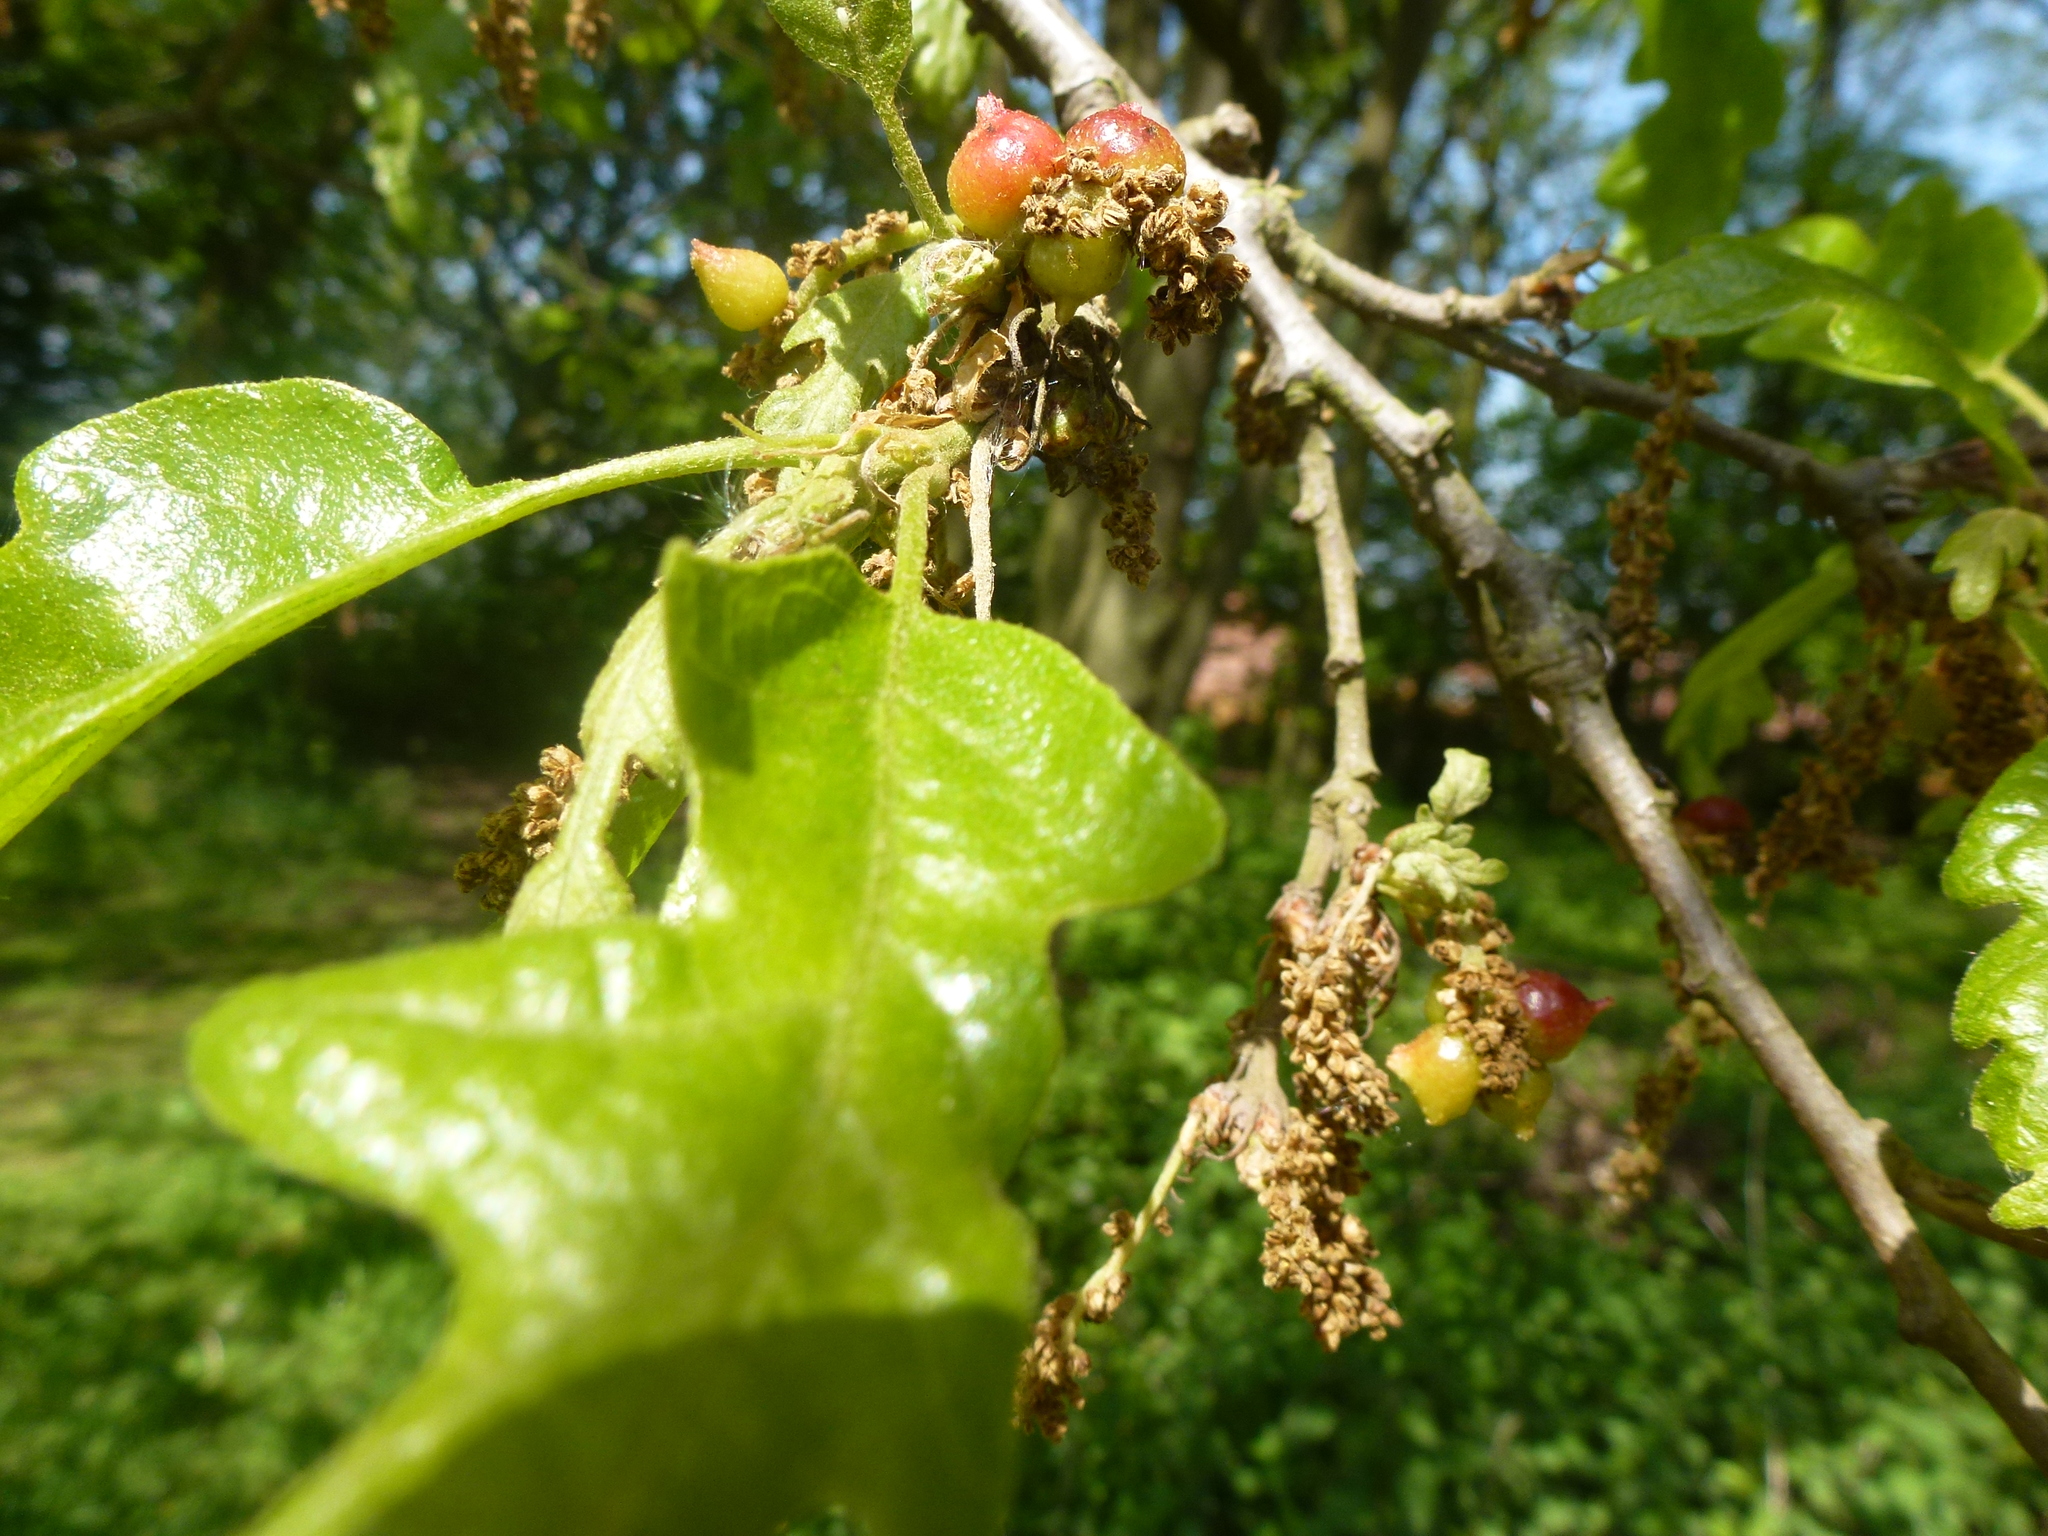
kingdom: Animalia
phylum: Arthropoda
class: Insecta
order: Hymenoptera
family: Cynipidae
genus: Andricus
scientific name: Andricus grossulariae
